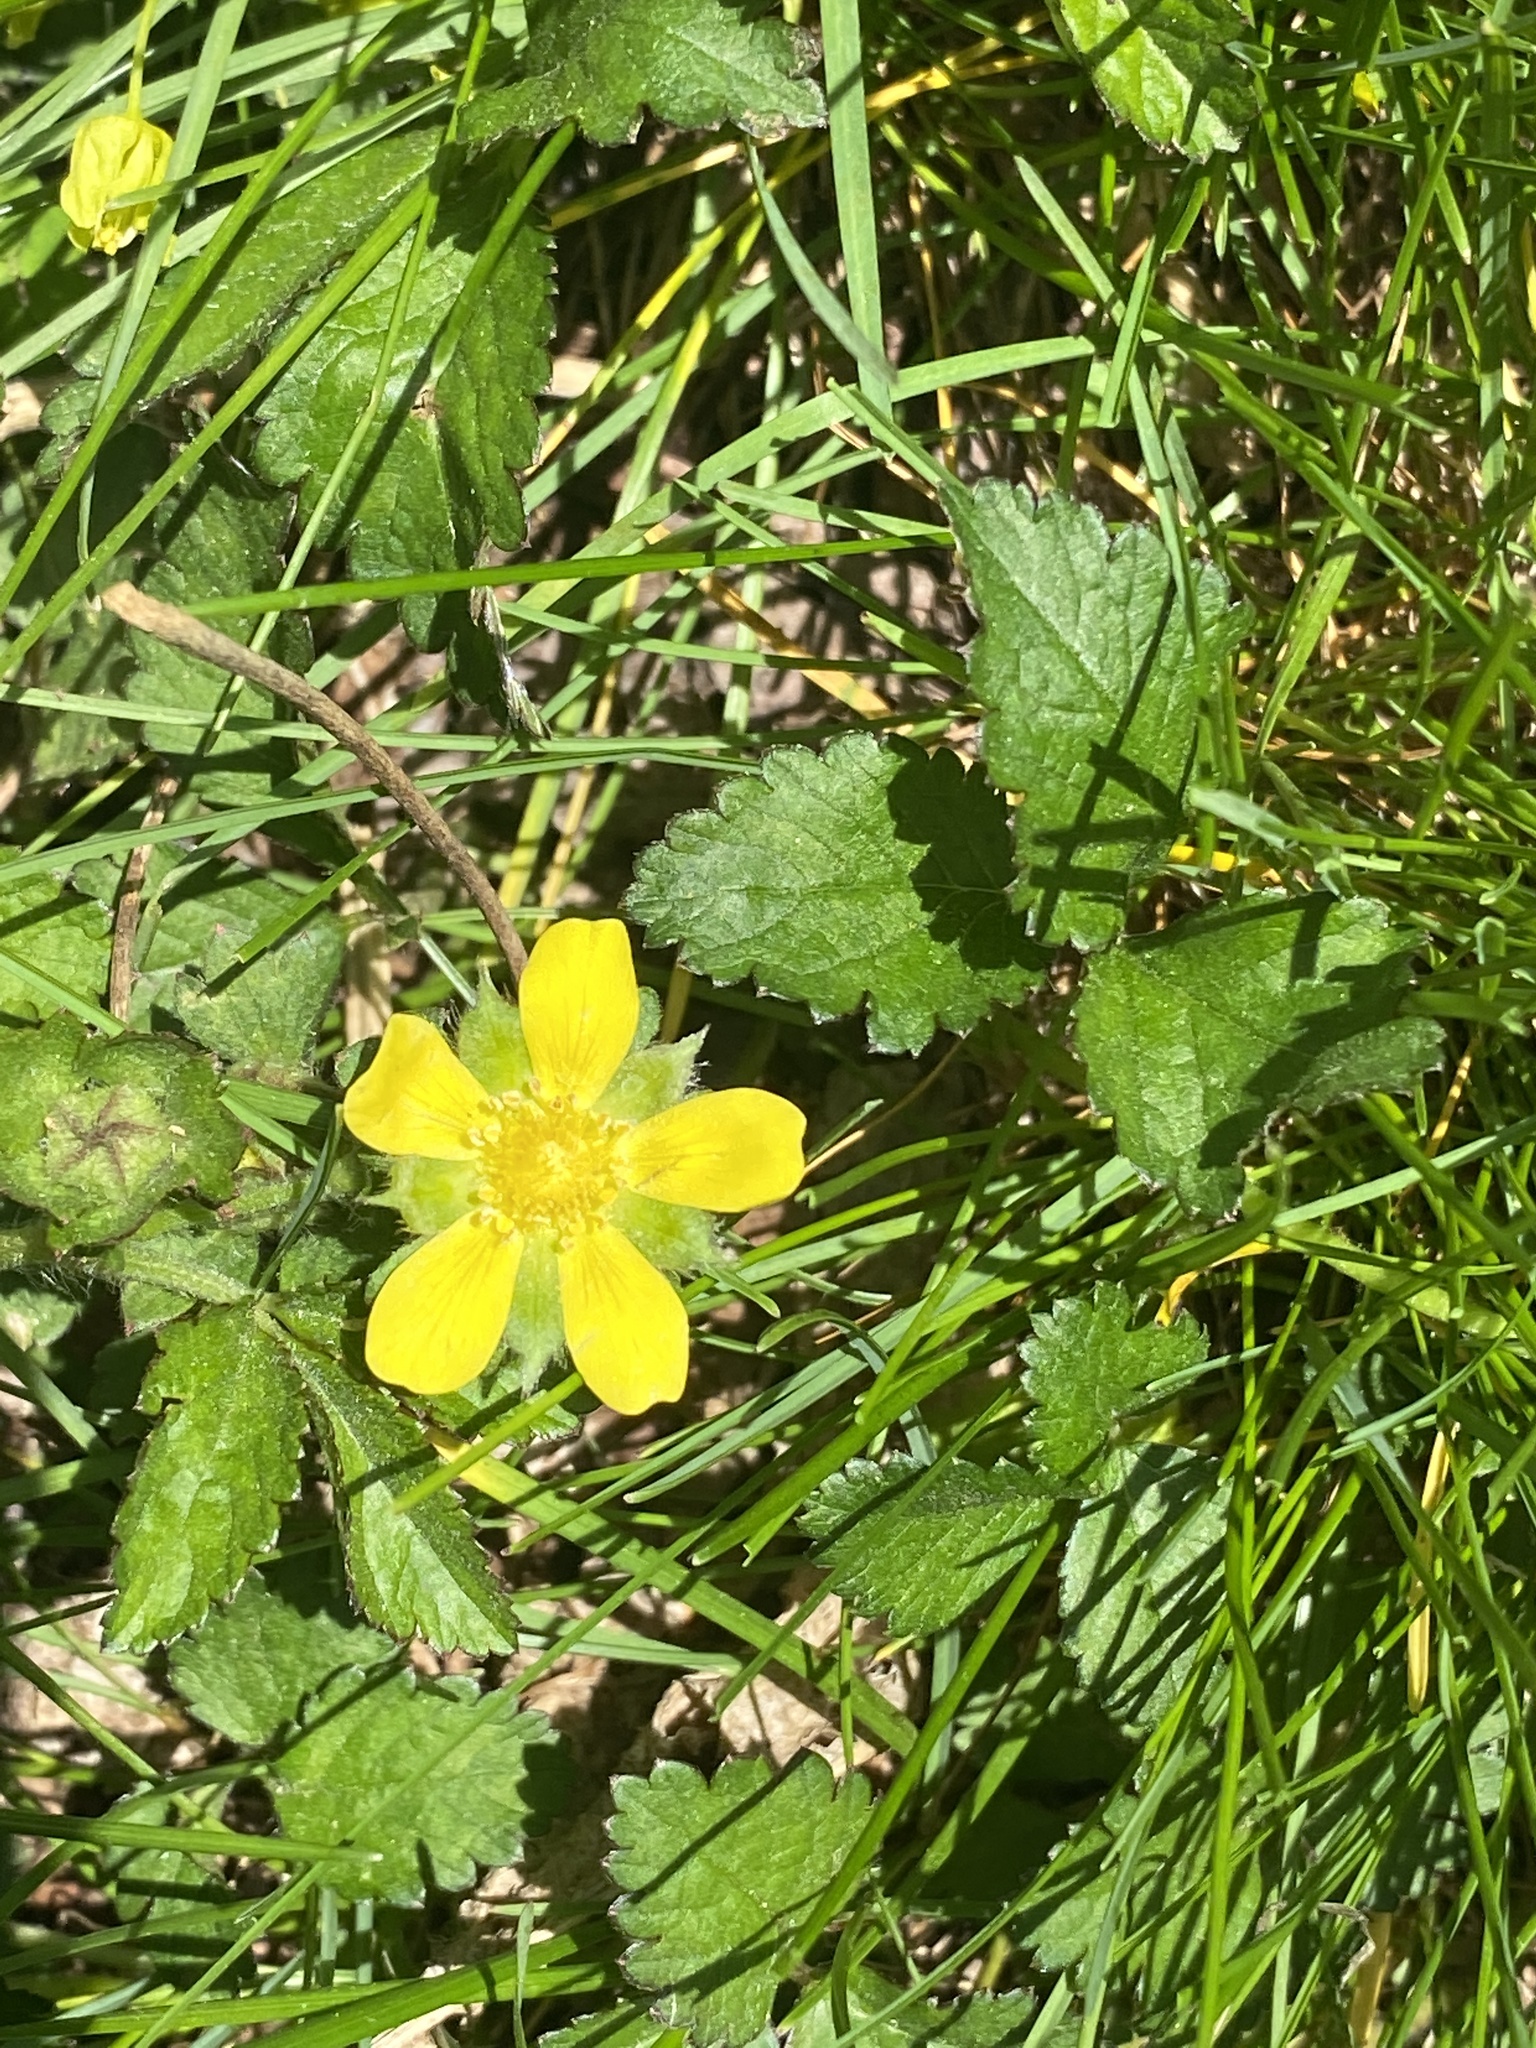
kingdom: Plantae
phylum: Tracheophyta
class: Magnoliopsida
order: Rosales
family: Rosaceae
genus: Potentilla
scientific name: Potentilla indica
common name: Yellow-flowered strawberry
